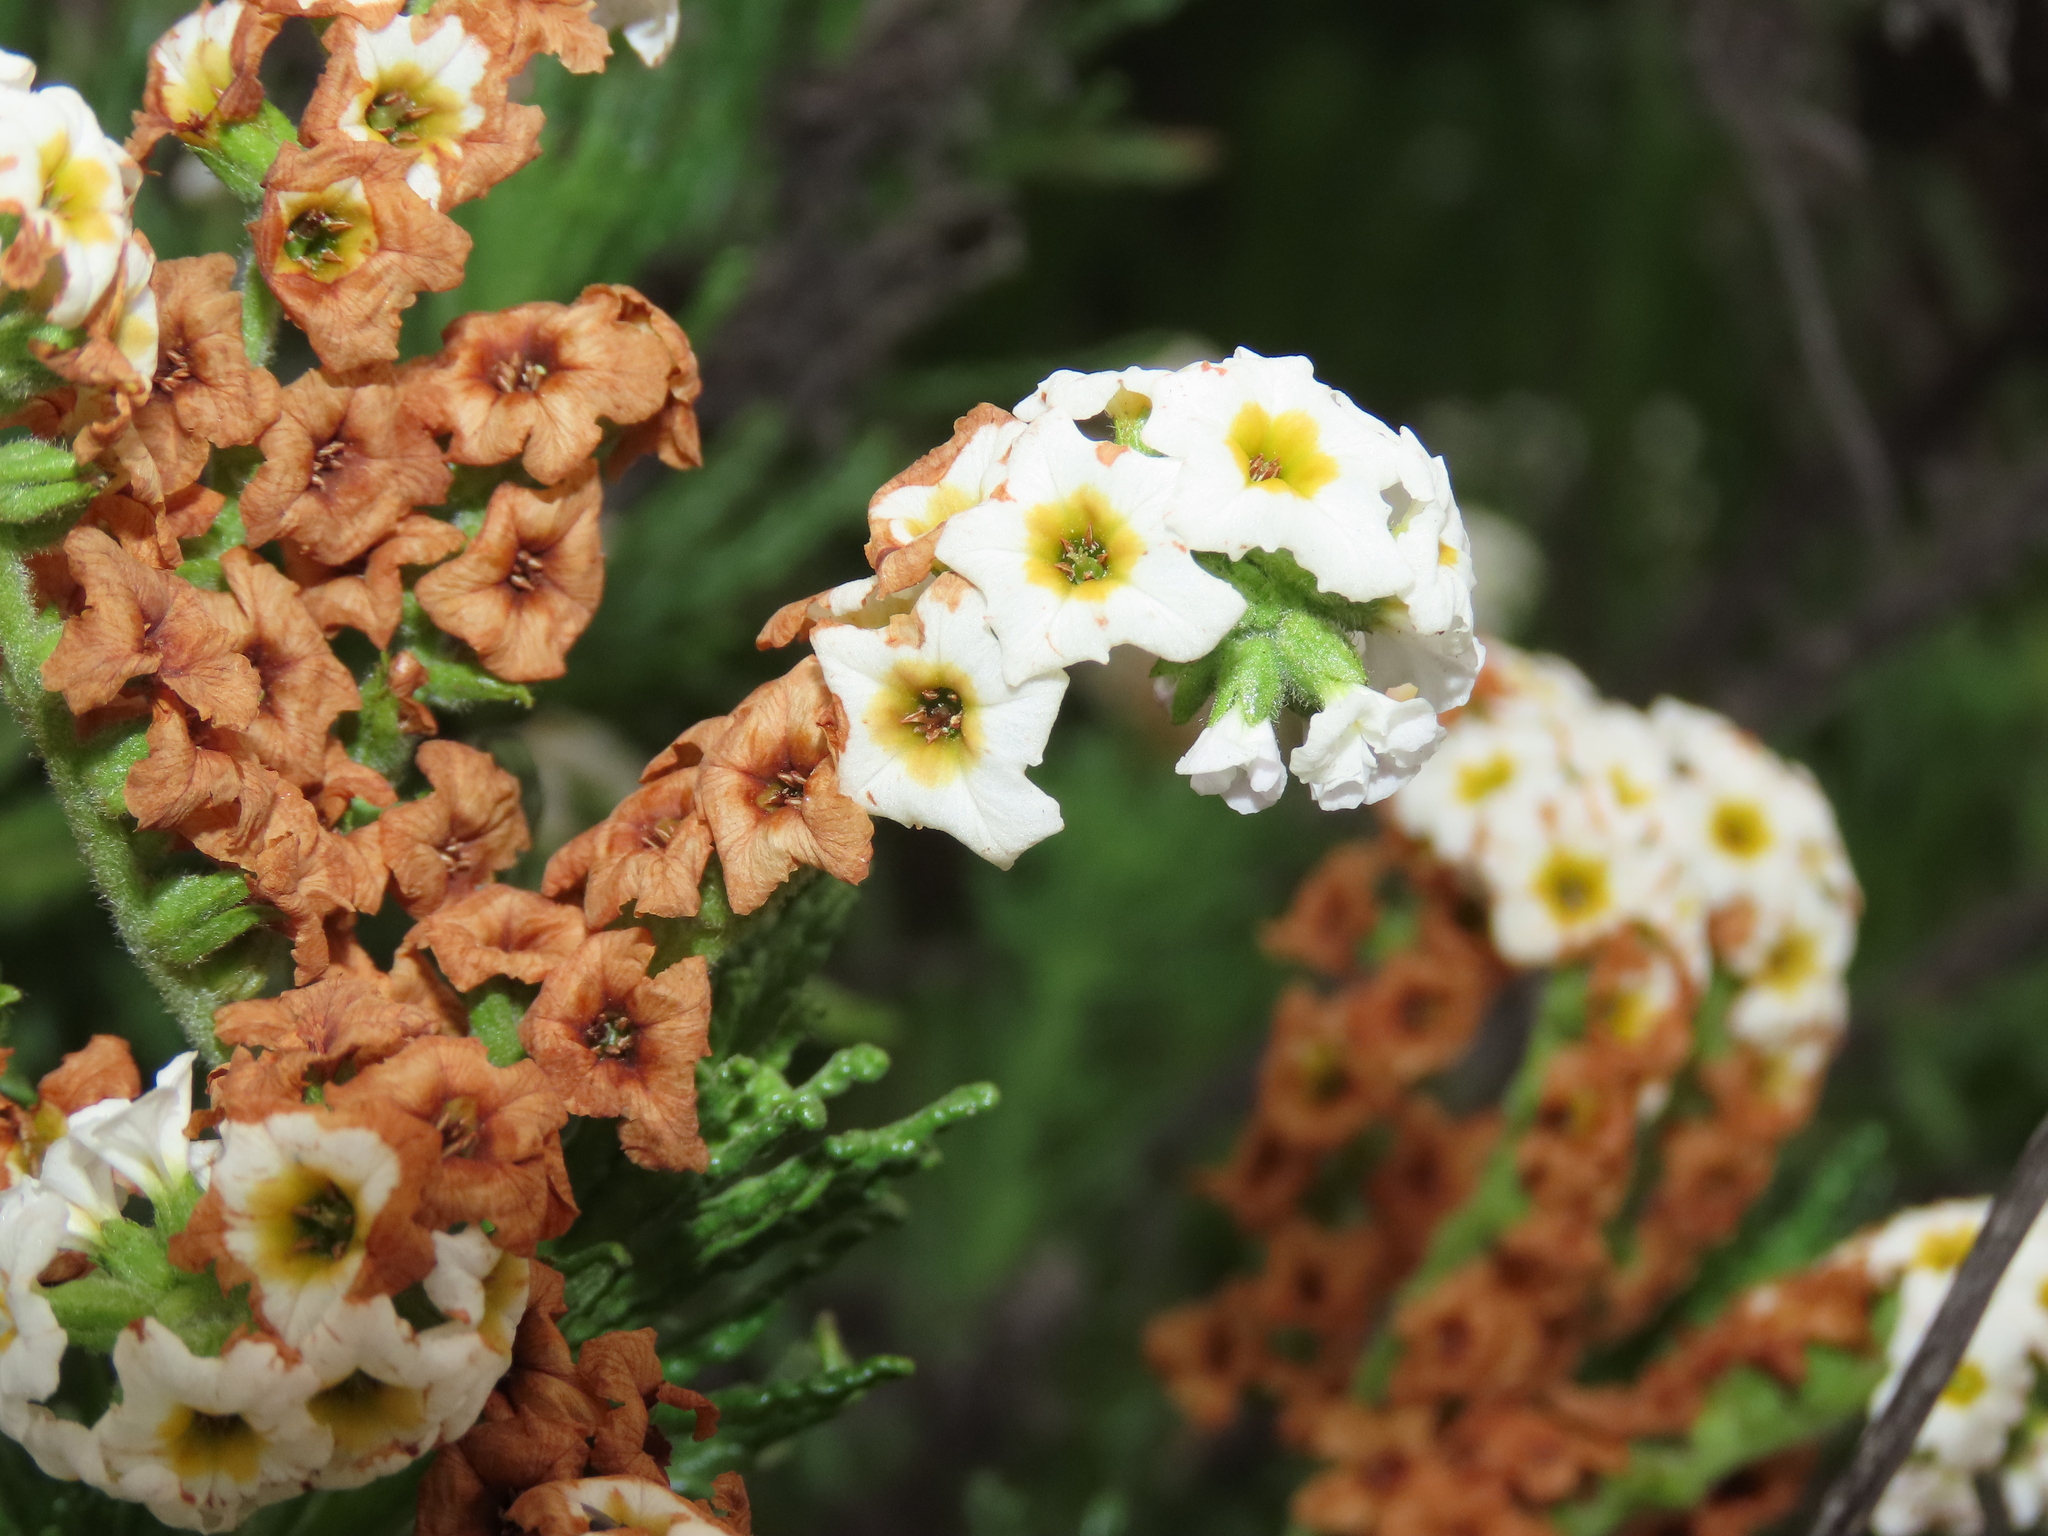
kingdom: Plantae
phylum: Tracheophyta
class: Magnoliopsida
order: Boraginales
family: Heliotropiaceae
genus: Heliotropium
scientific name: Heliotropium sinuatum
